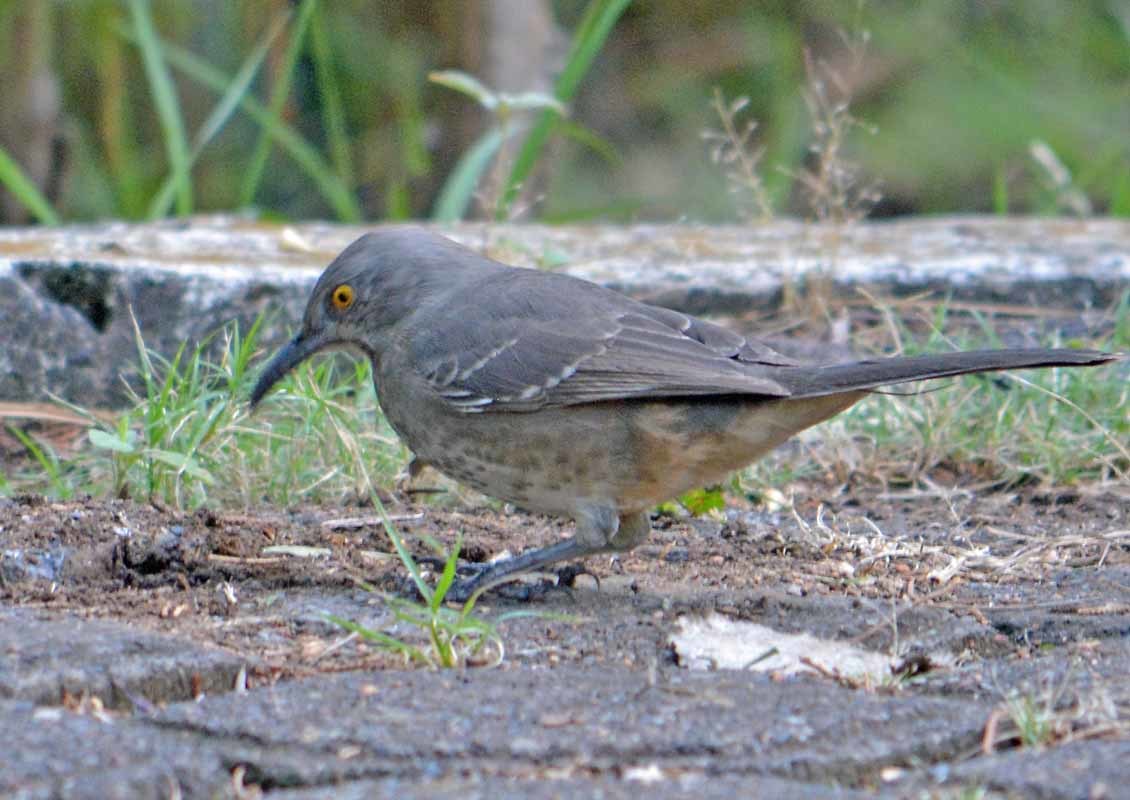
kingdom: Animalia
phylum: Chordata
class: Aves
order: Passeriformes
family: Mimidae
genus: Toxostoma
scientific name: Toxostoma curvirostre
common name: Curve-billed thrasher
